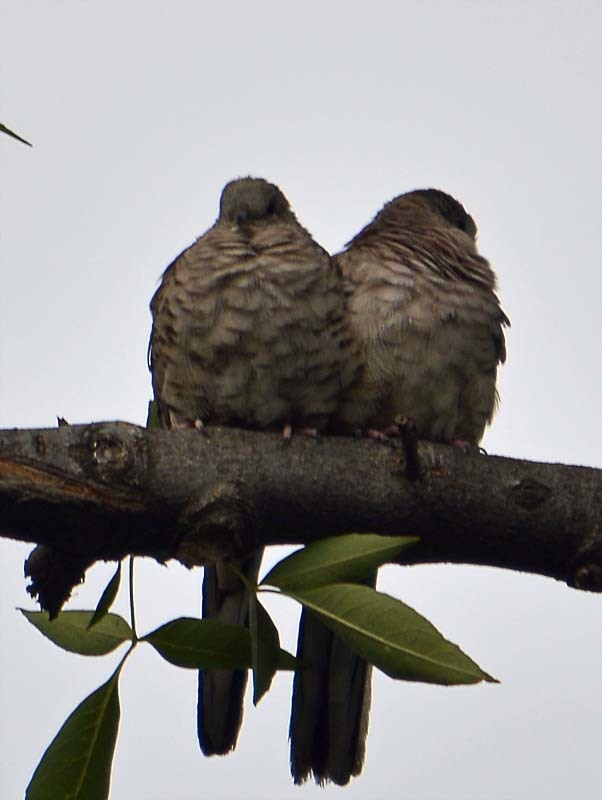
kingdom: Animalia
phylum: Chordata
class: Aves
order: Columbiformes
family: Columbidae
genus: Columbina
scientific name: Columbina inca
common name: Inca dove
